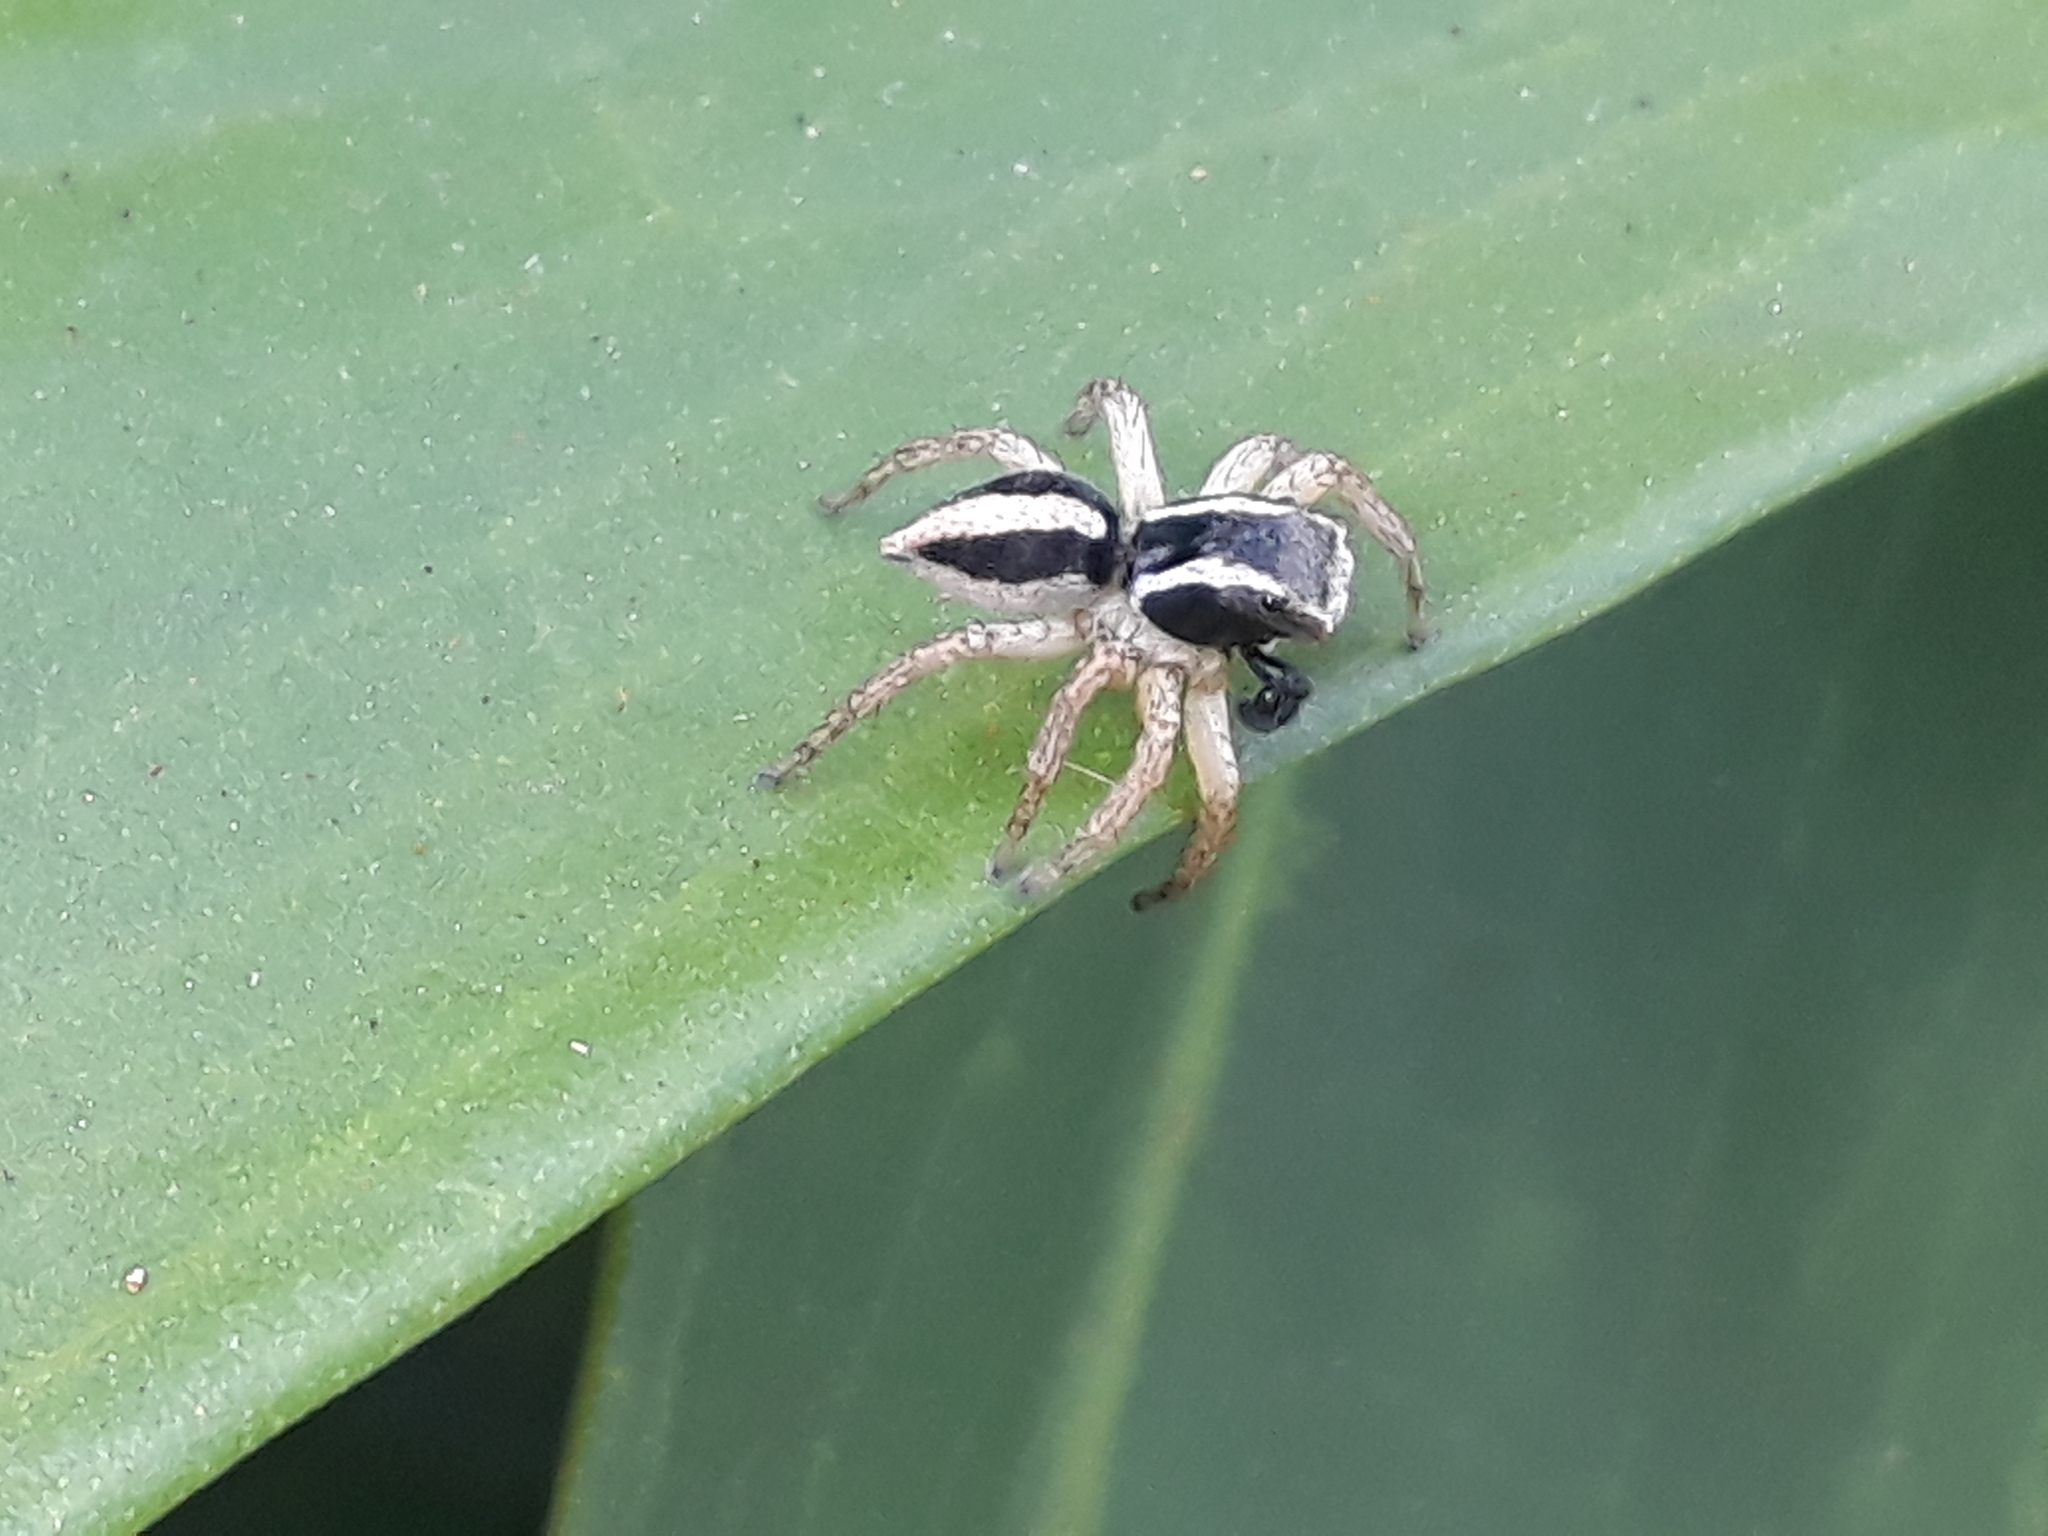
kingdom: Animalia
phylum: Arthropoda
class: Arachnida
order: Araneae
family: Salticidae
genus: Aphirape
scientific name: Aphirape misionensis
